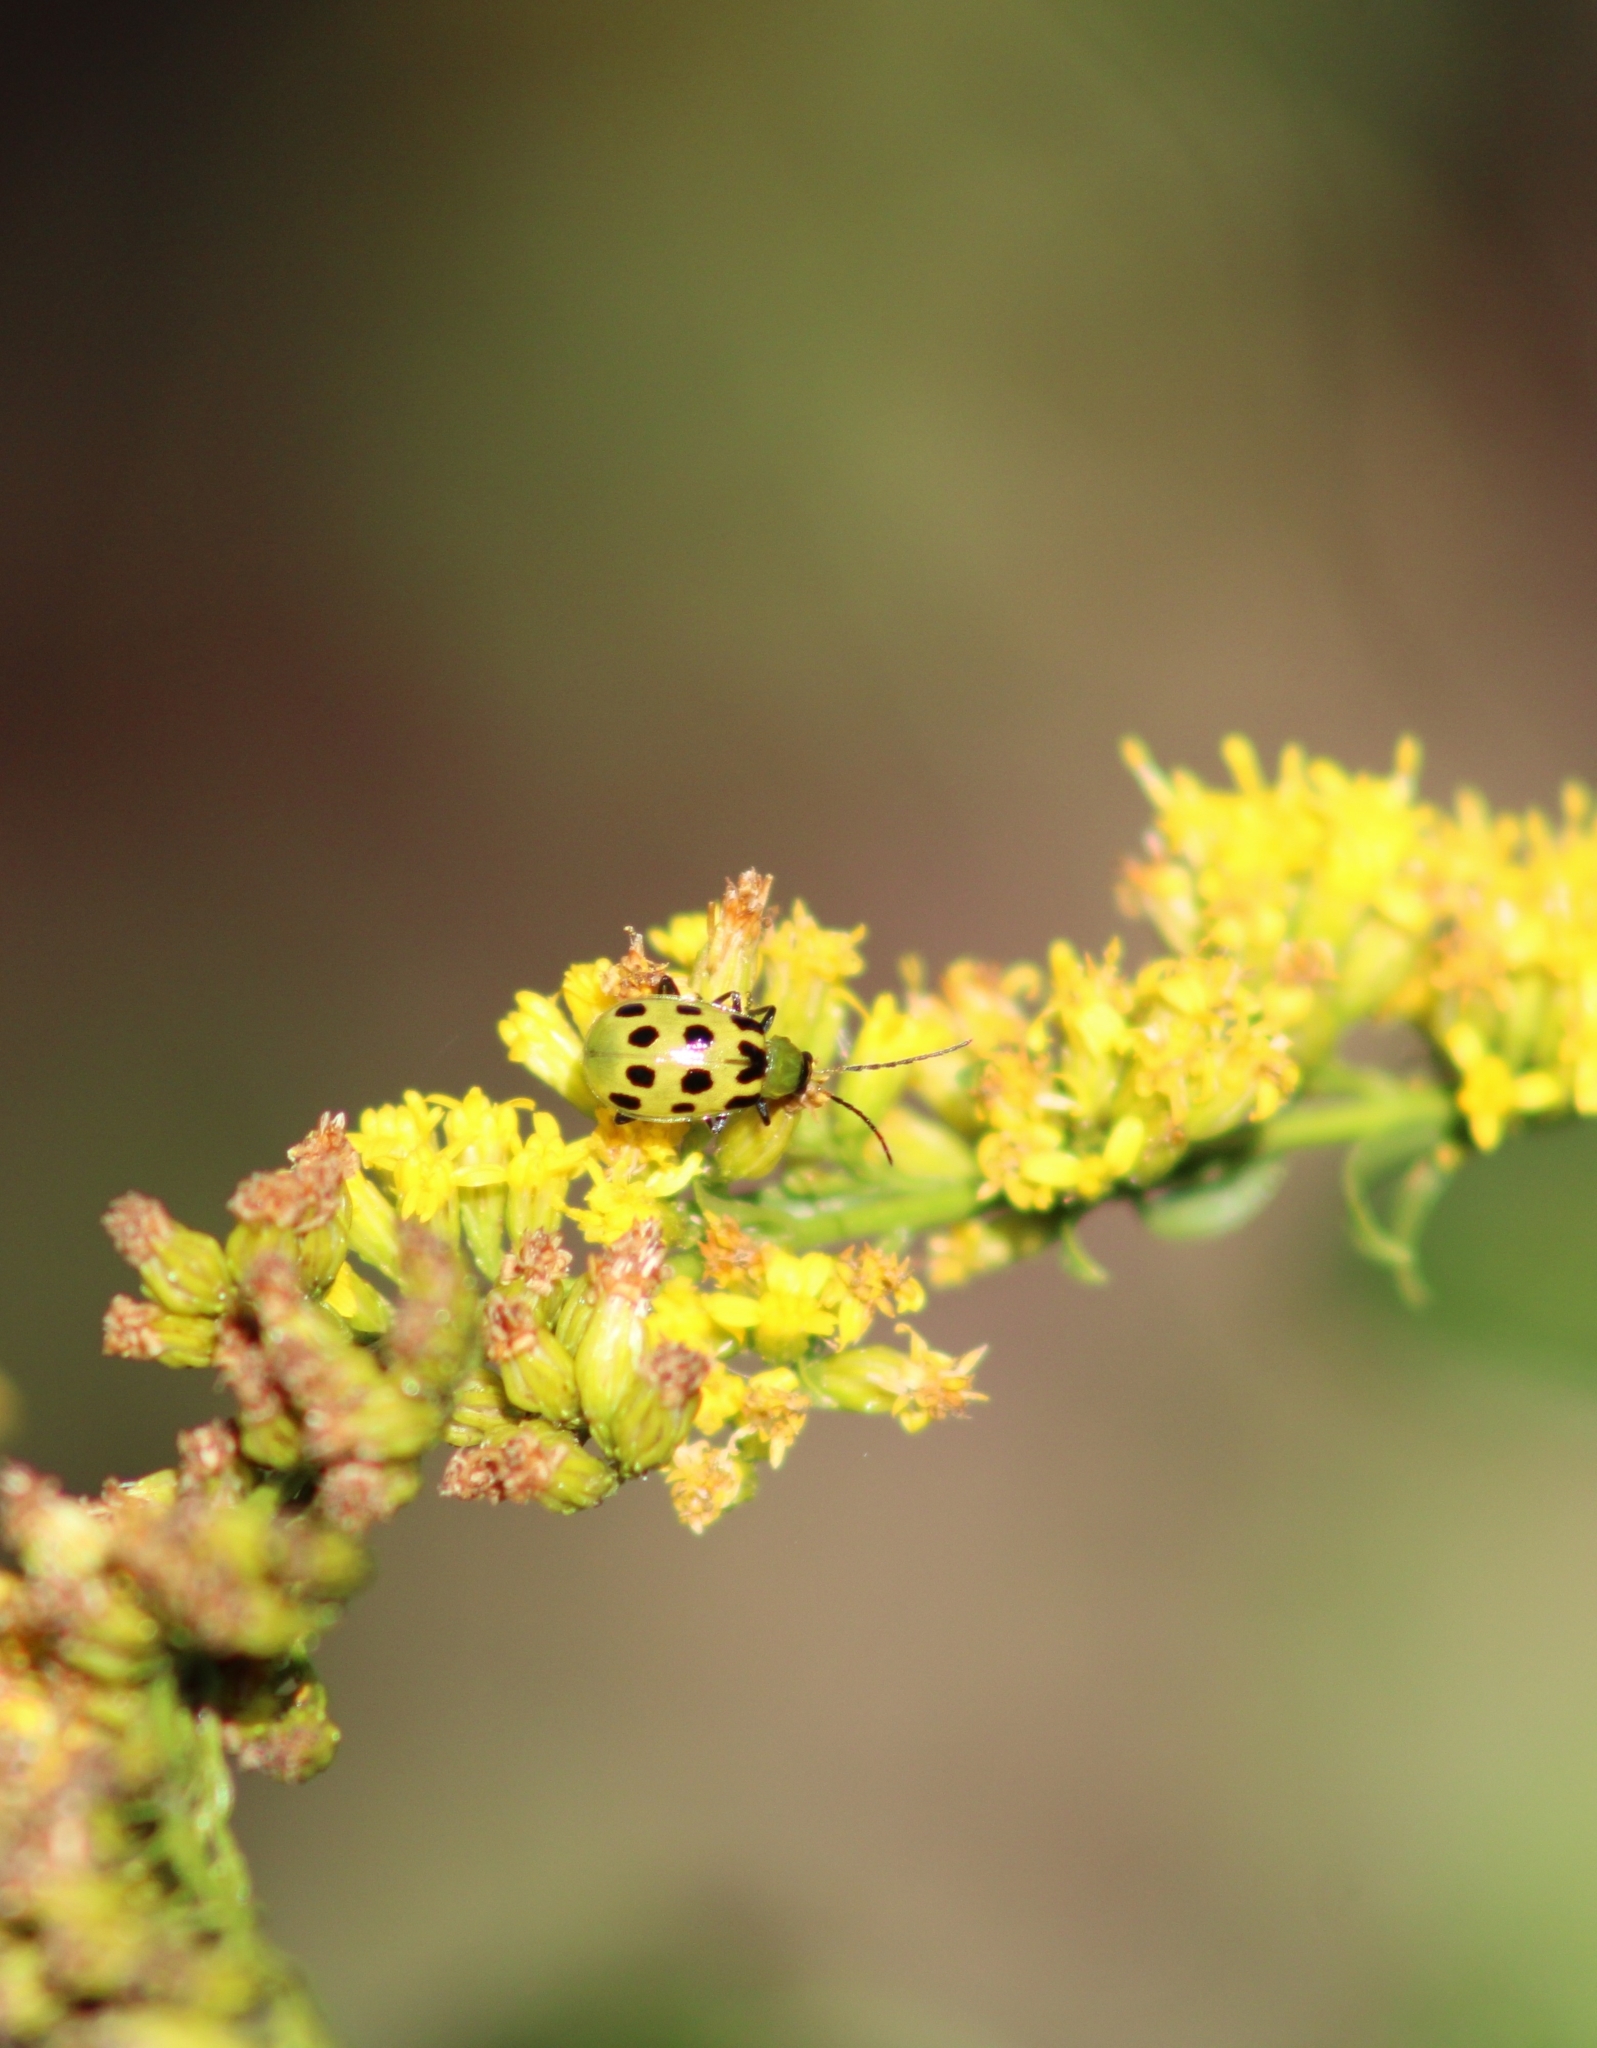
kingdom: Animalia
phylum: Arthropoda
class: Insecta
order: Coleoptera
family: Chrysomelidae
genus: Diabrotica
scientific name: Diabrotica undecimpunctata
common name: Spotted cucumber beetle
